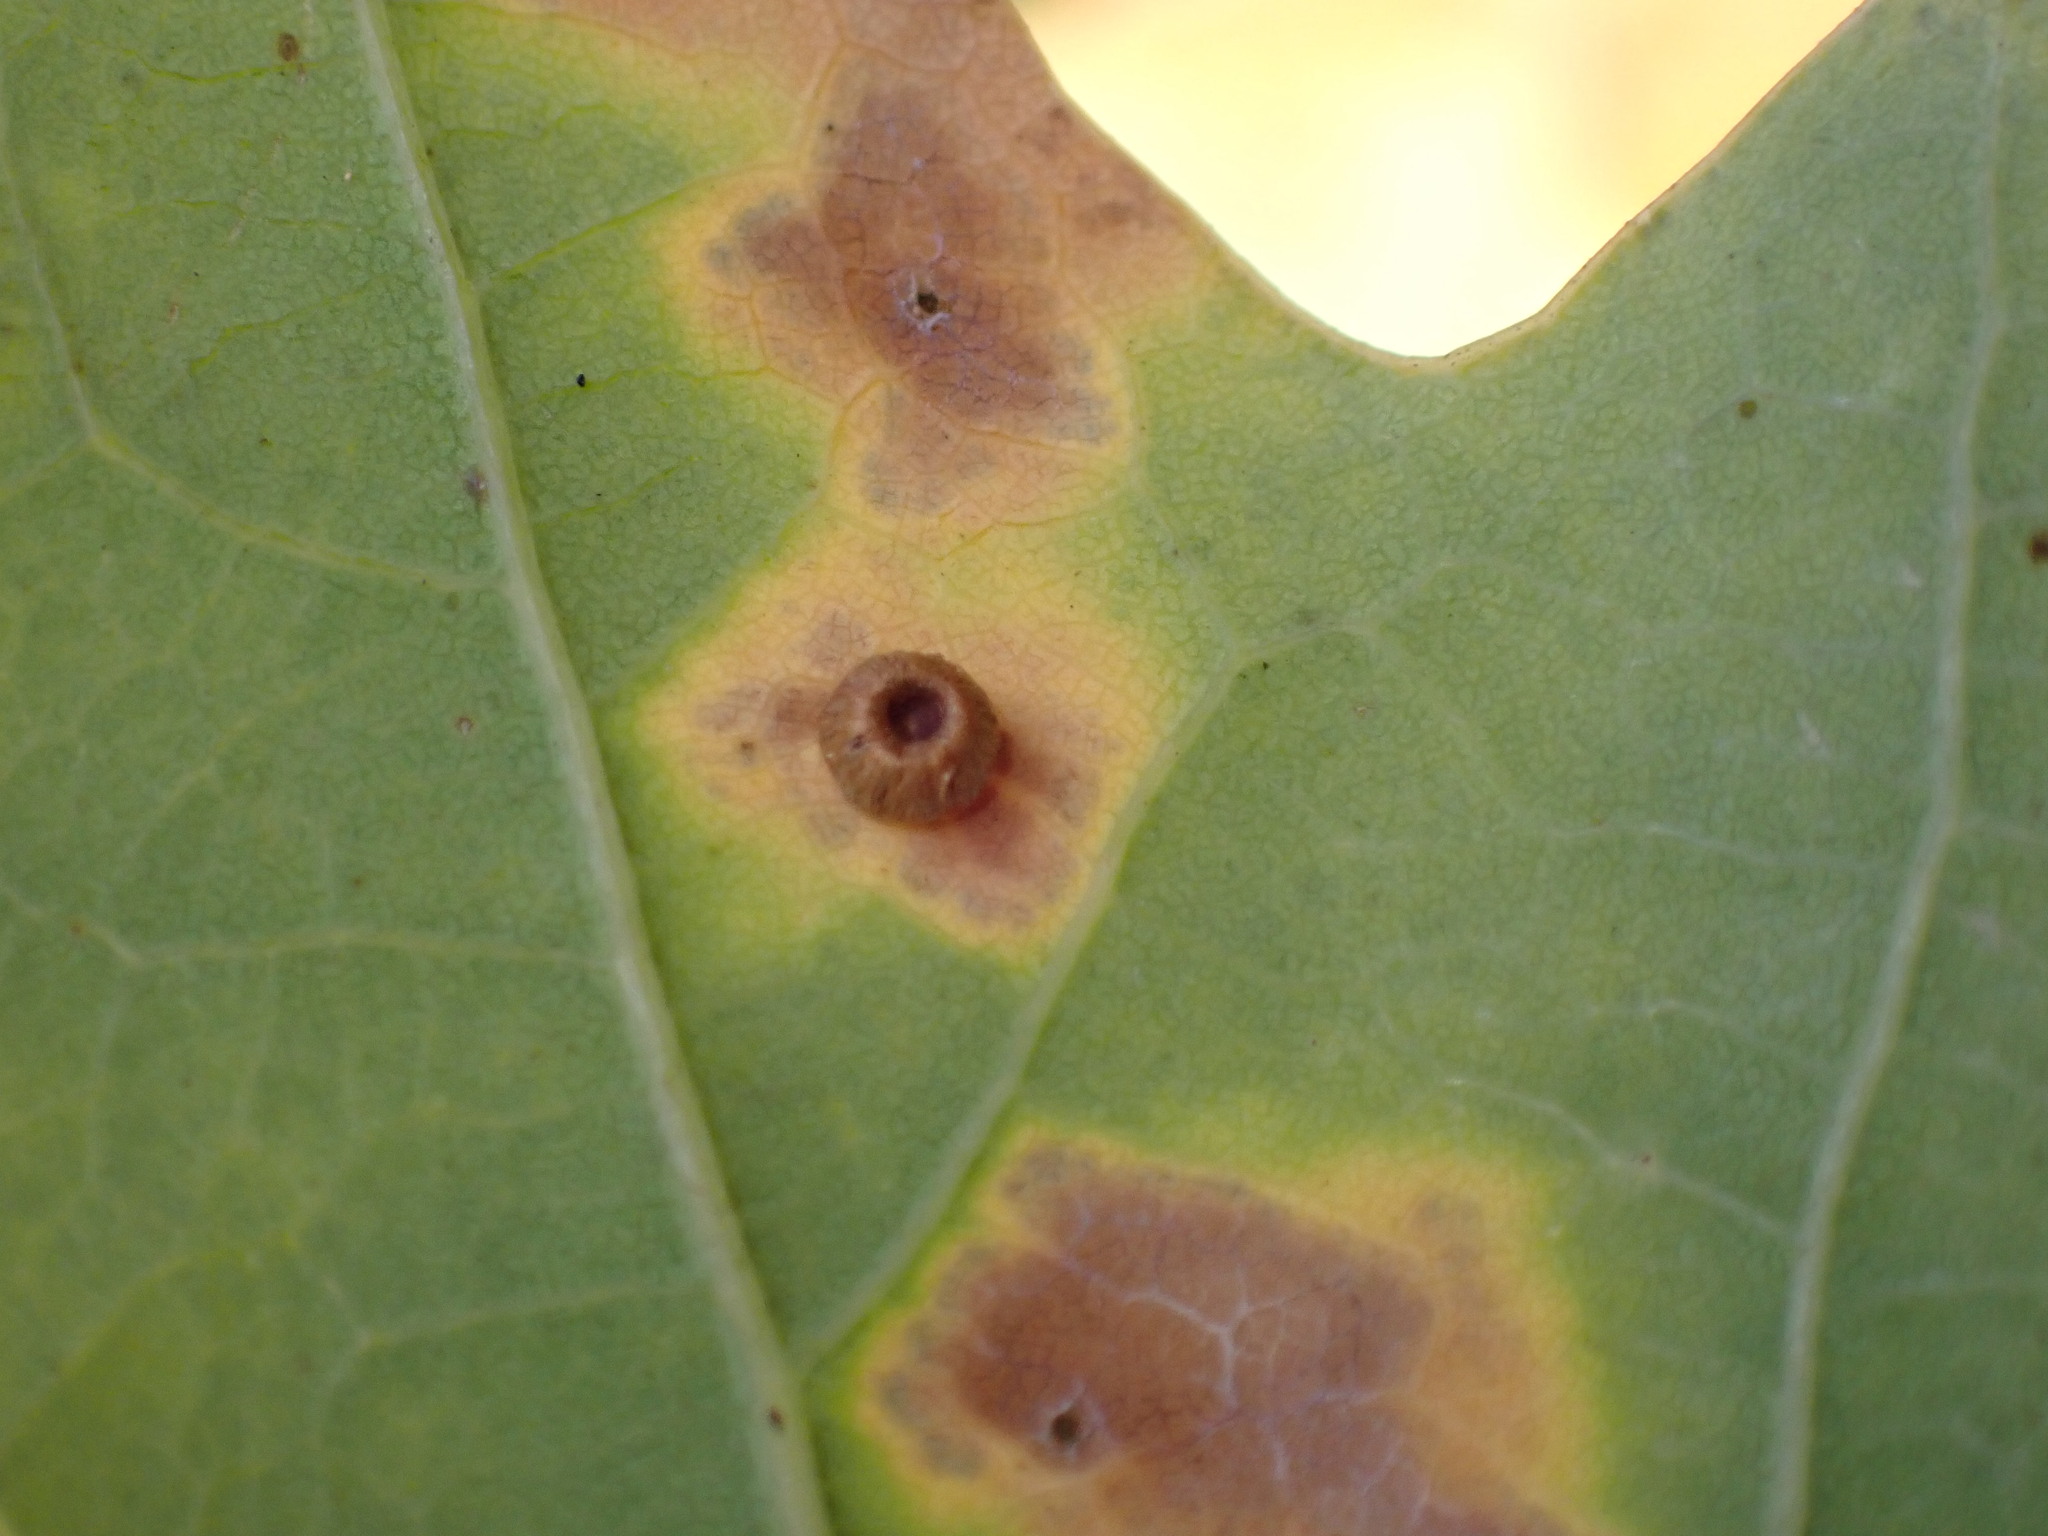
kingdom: Animalia
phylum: Arthropoda
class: Insecta
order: Hymenoptera
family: Cynipidae
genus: Neuroterus
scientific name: Neuroterus numismalis
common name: Silk-button spangle gall
